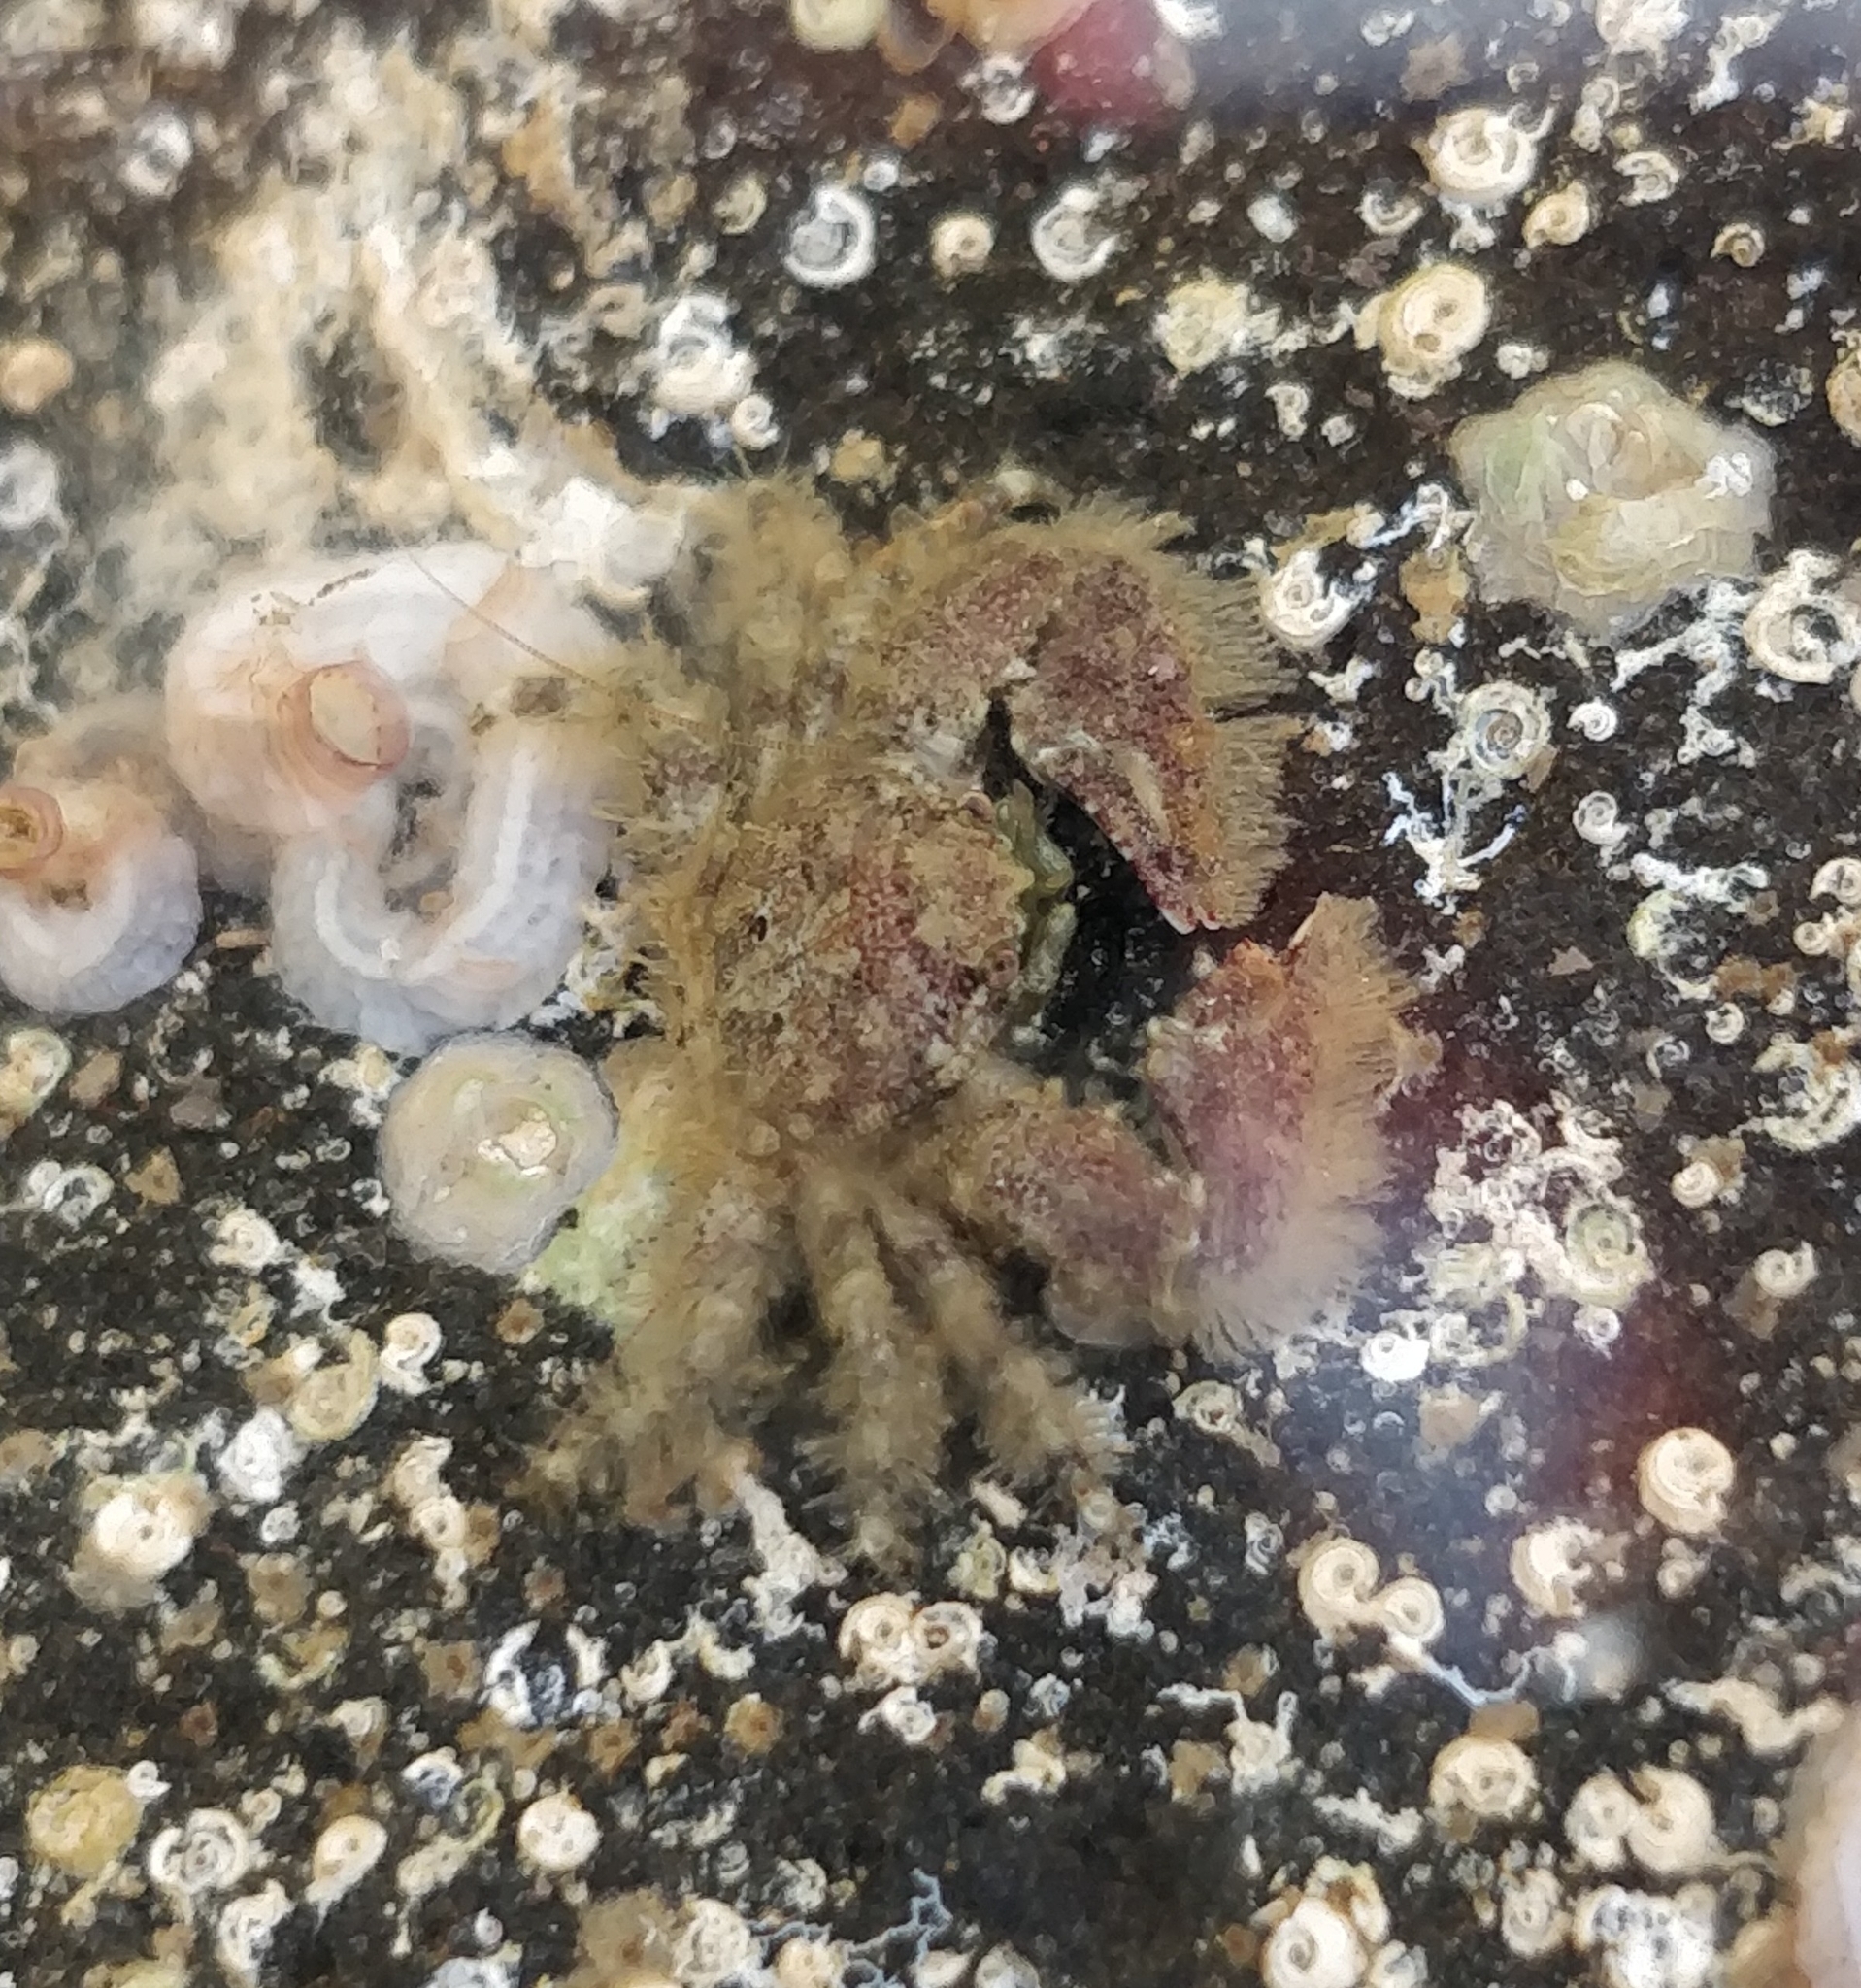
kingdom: Animalia
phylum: Arthropoda
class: Malacostraca
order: Decapoda
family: Porcellanidae
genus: Porcellana
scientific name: Porcellana platycheles
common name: Porcelain crab
